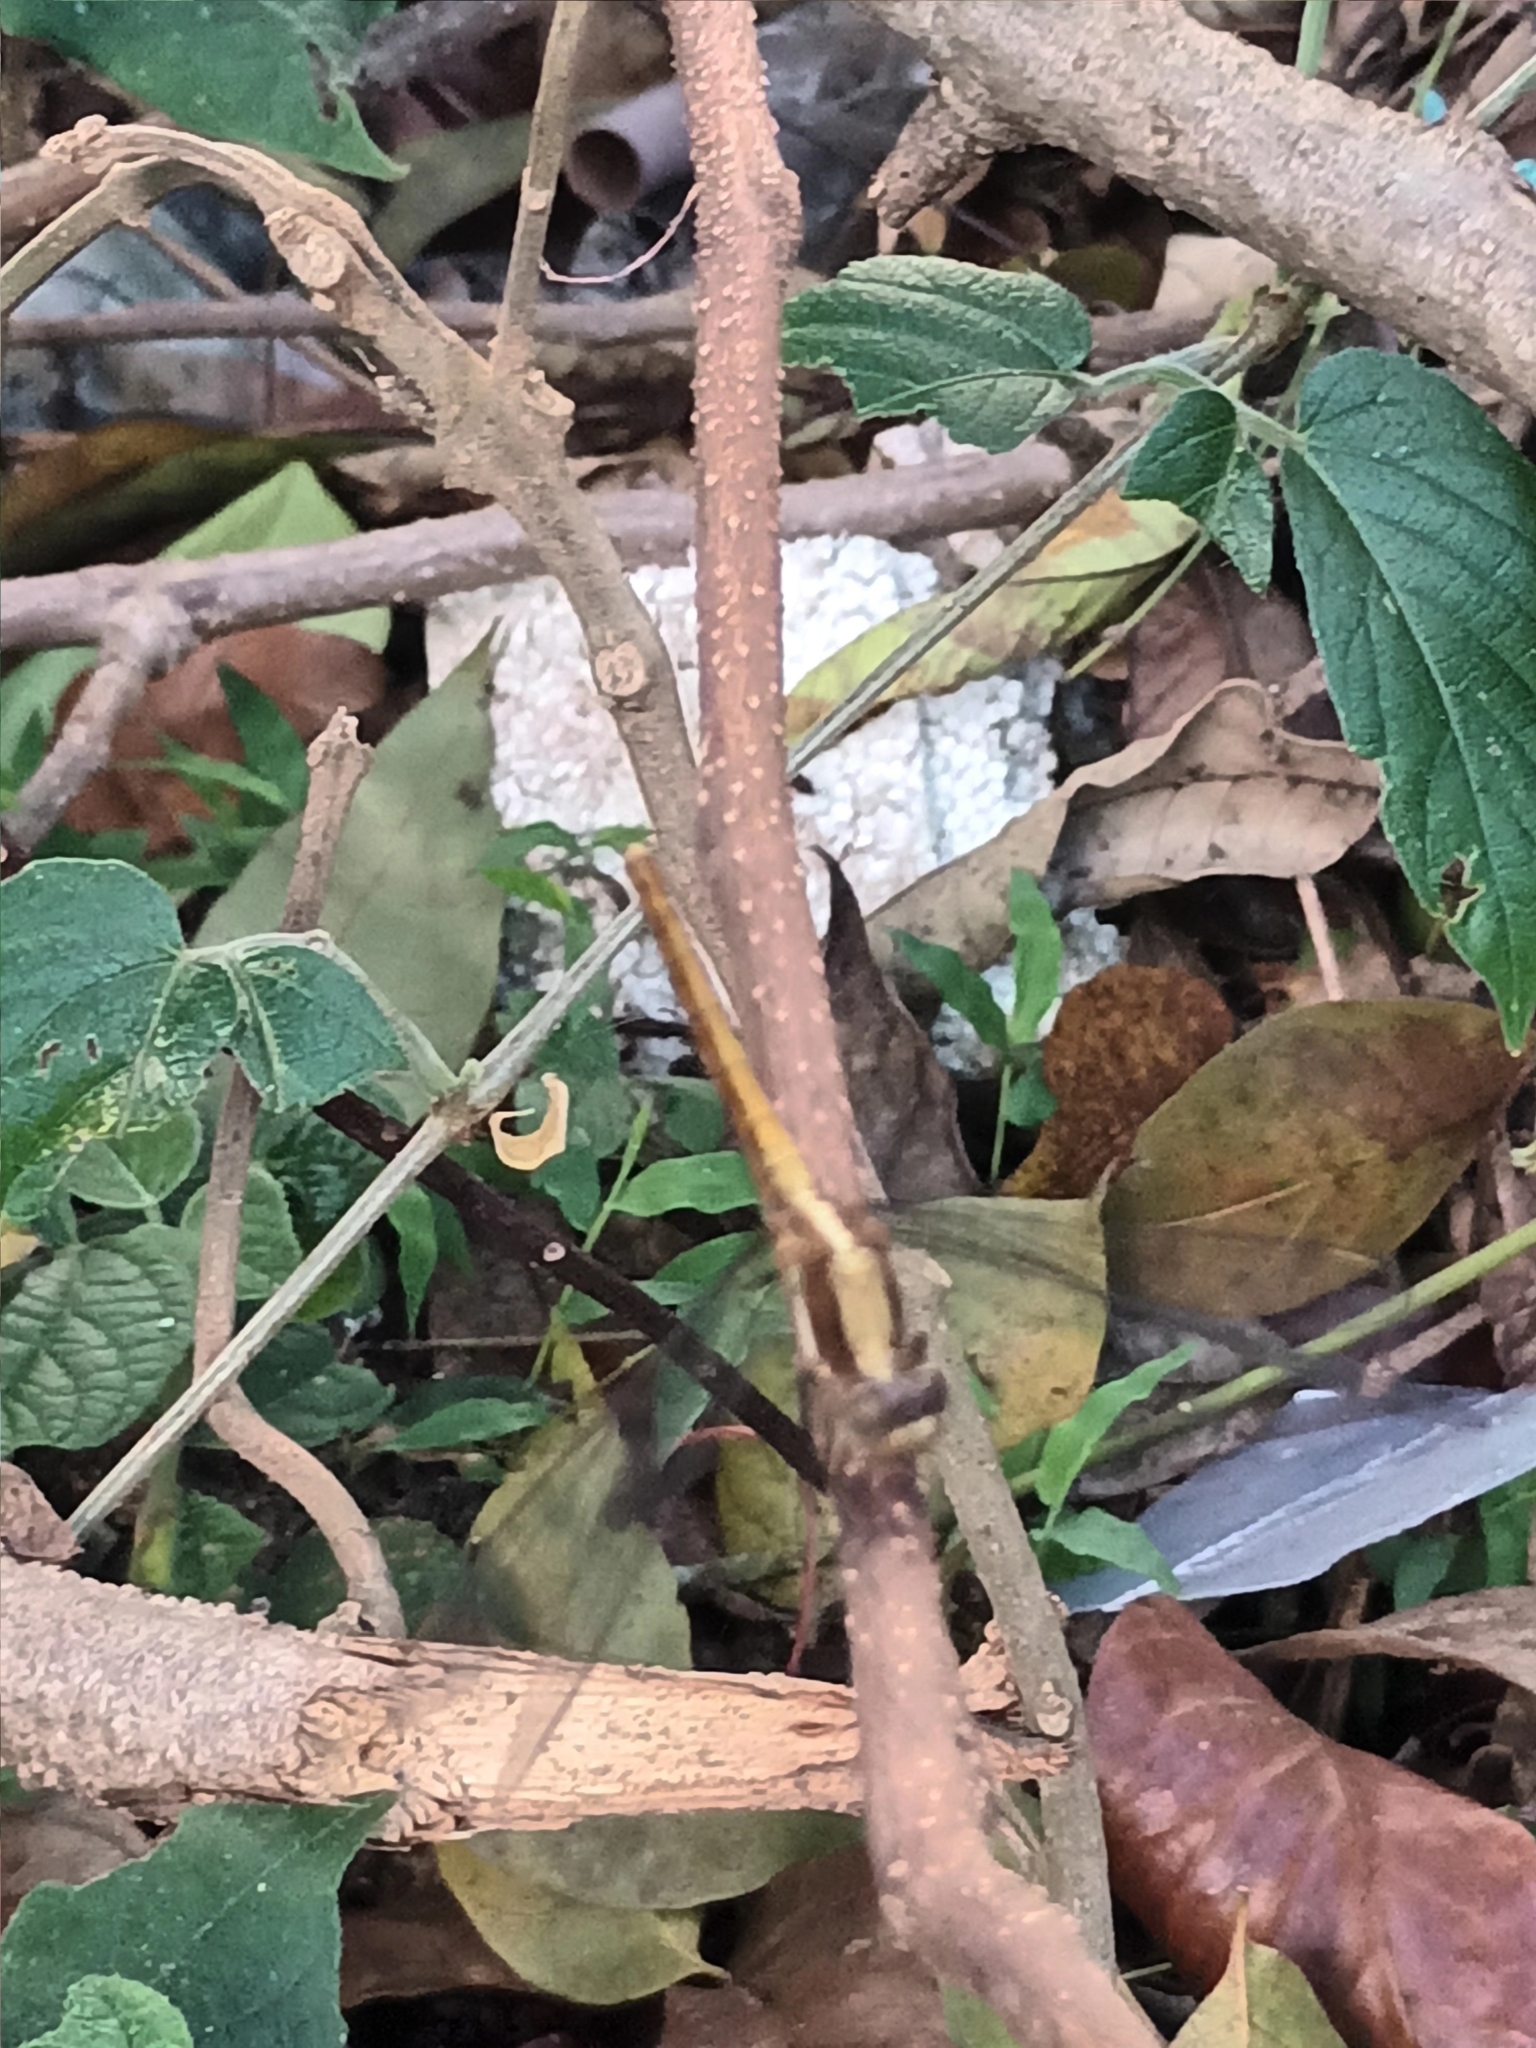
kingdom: Animalia
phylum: Arthropoda
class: Insecta
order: Odonata
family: Libellulidae
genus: Orthetrum
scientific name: Orthetrum glaucum
